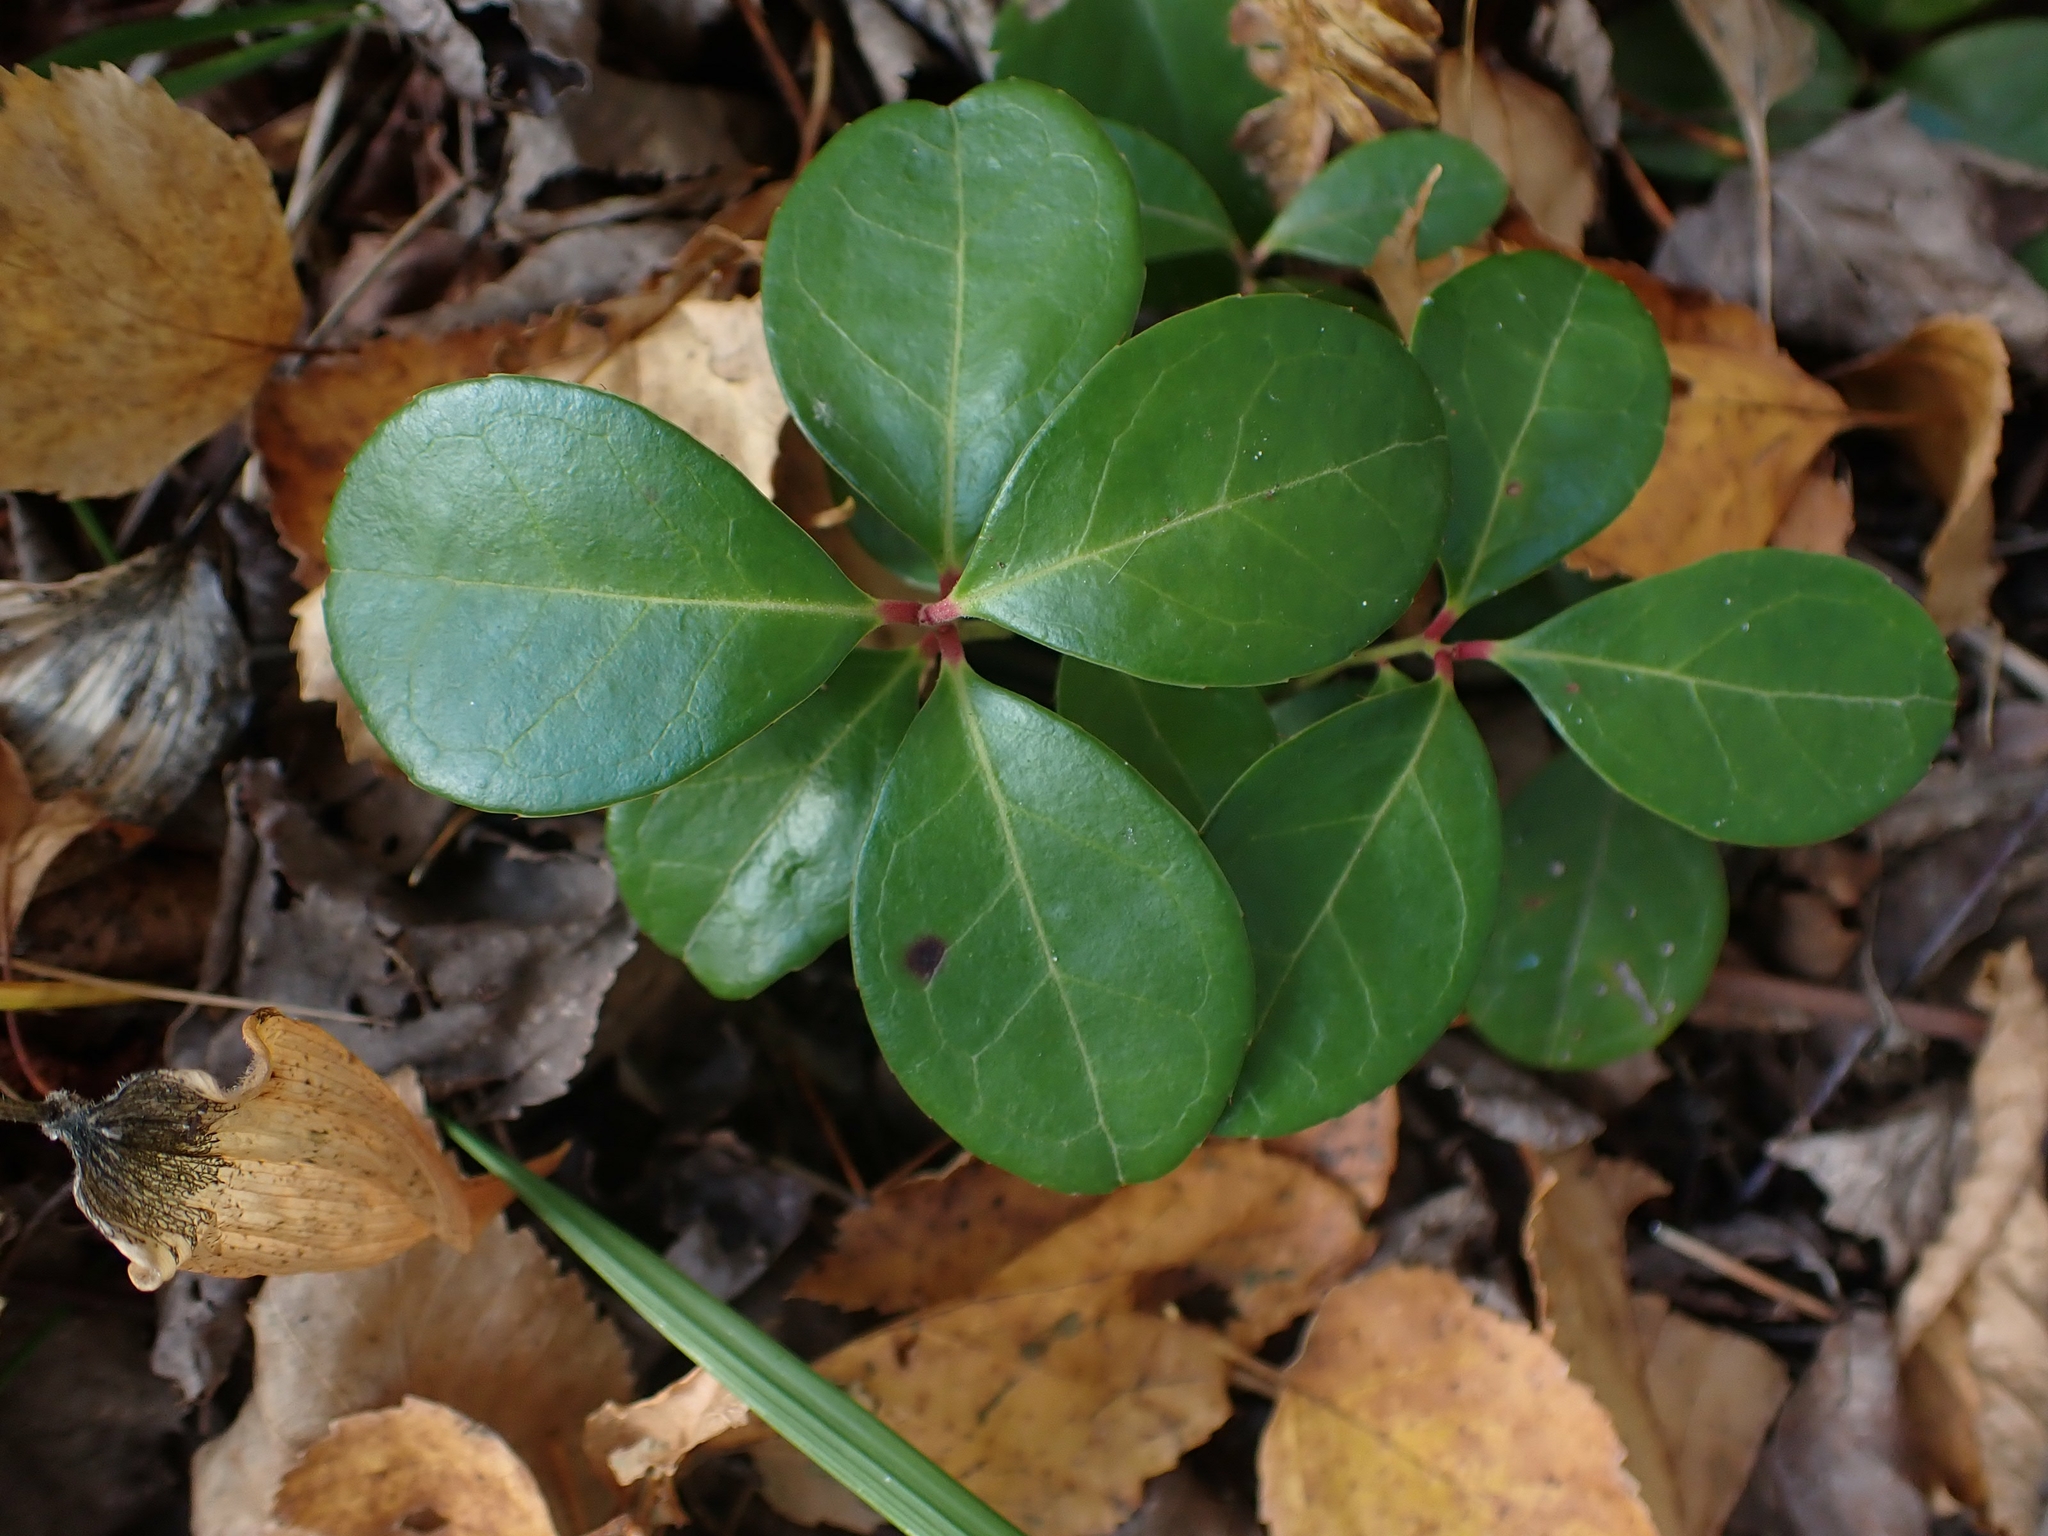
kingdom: Plantae
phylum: Tracheophyta
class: Magnoliopsida
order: Ericales
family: Ericaceae
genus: Gaultheria
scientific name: Gaultheria procumbens
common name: Checkerberry
